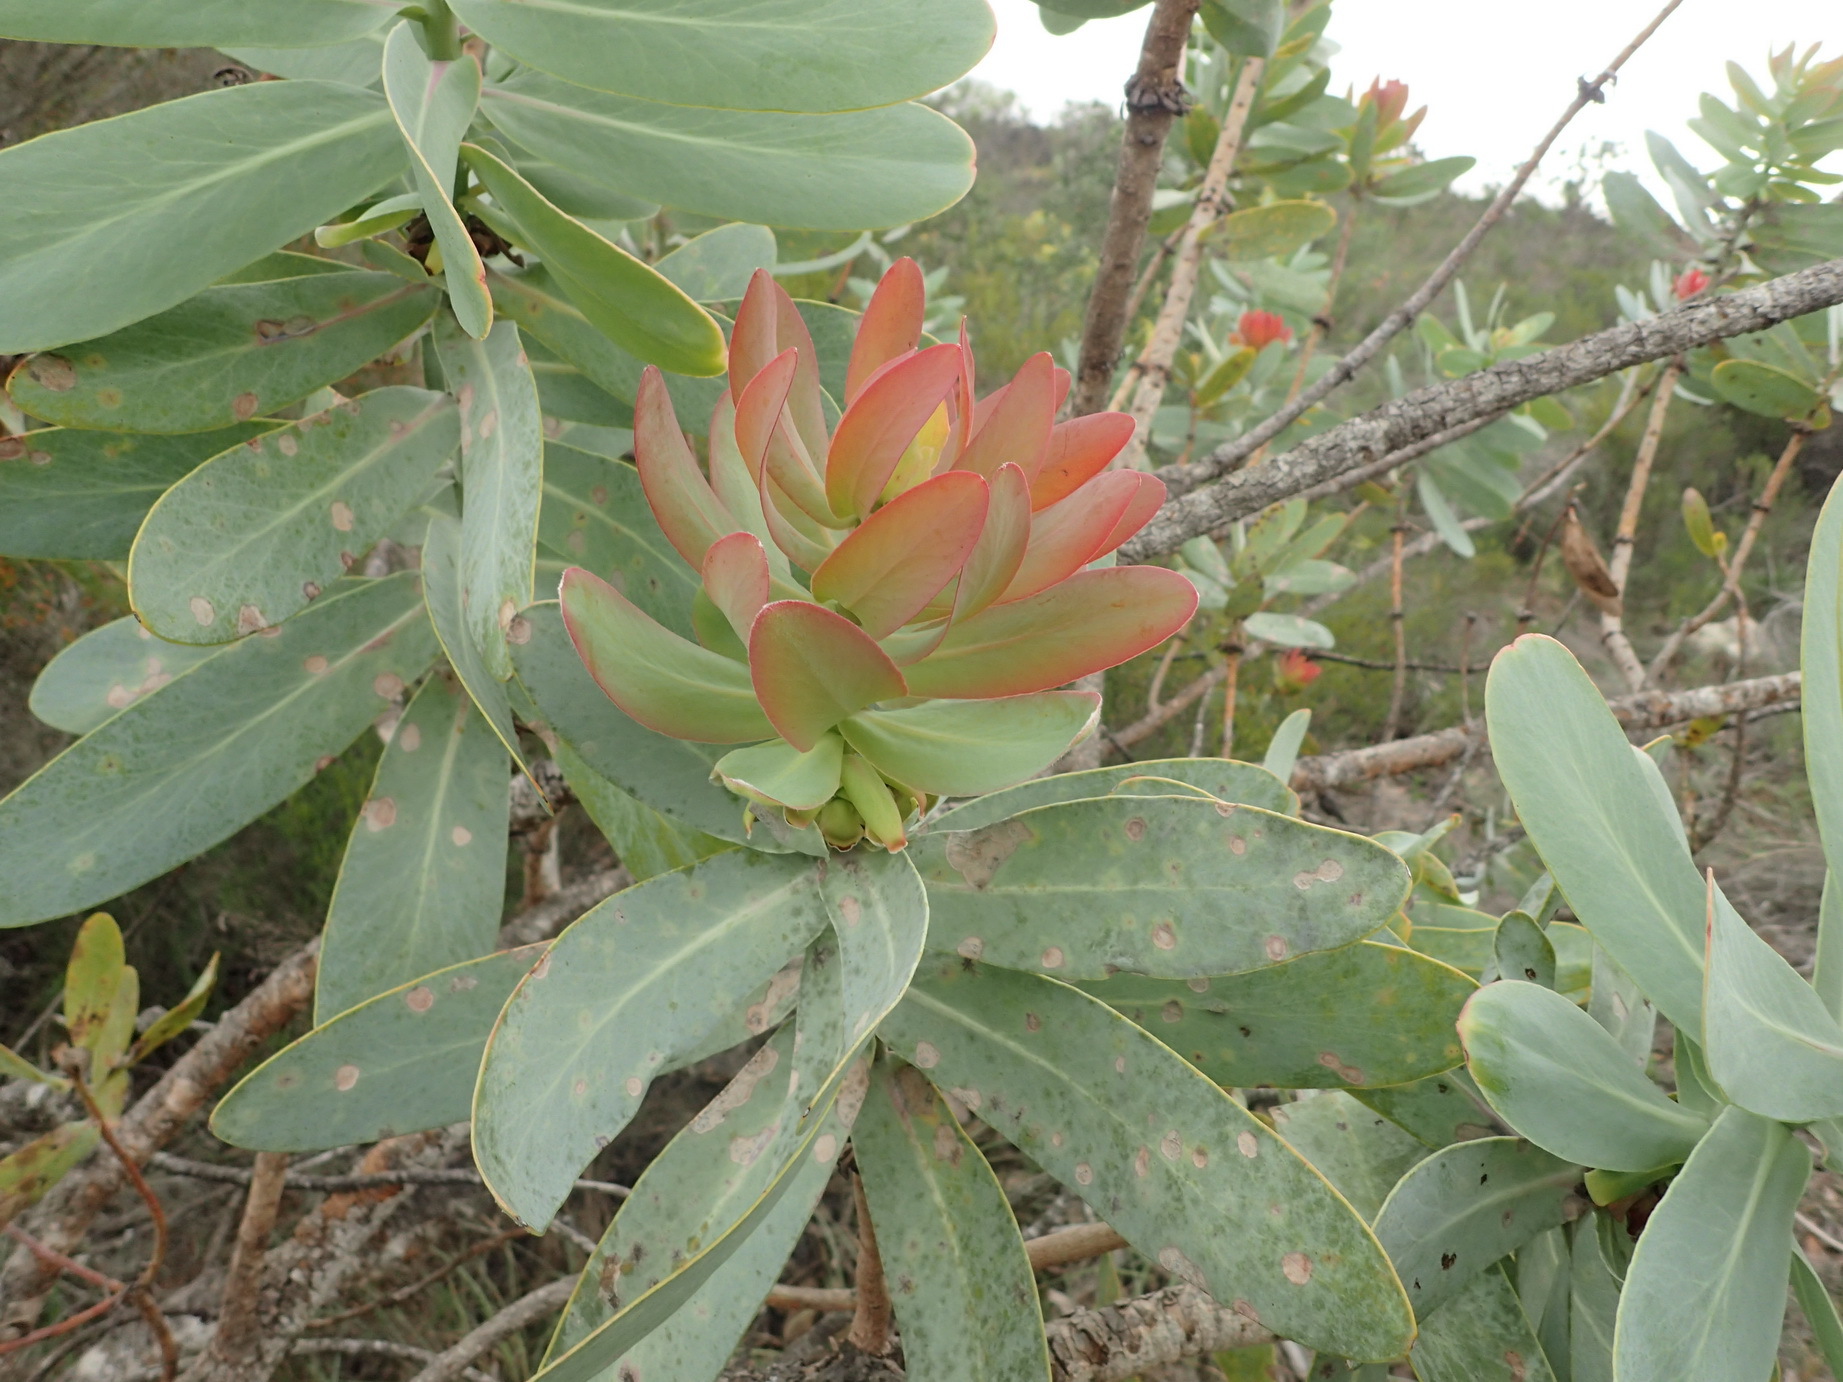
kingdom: Plantae
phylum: Tracheophyta
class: Magnoliopsida
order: Proteales
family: Proteaceae
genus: Protea
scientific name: Protea nitida
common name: Tree protea
